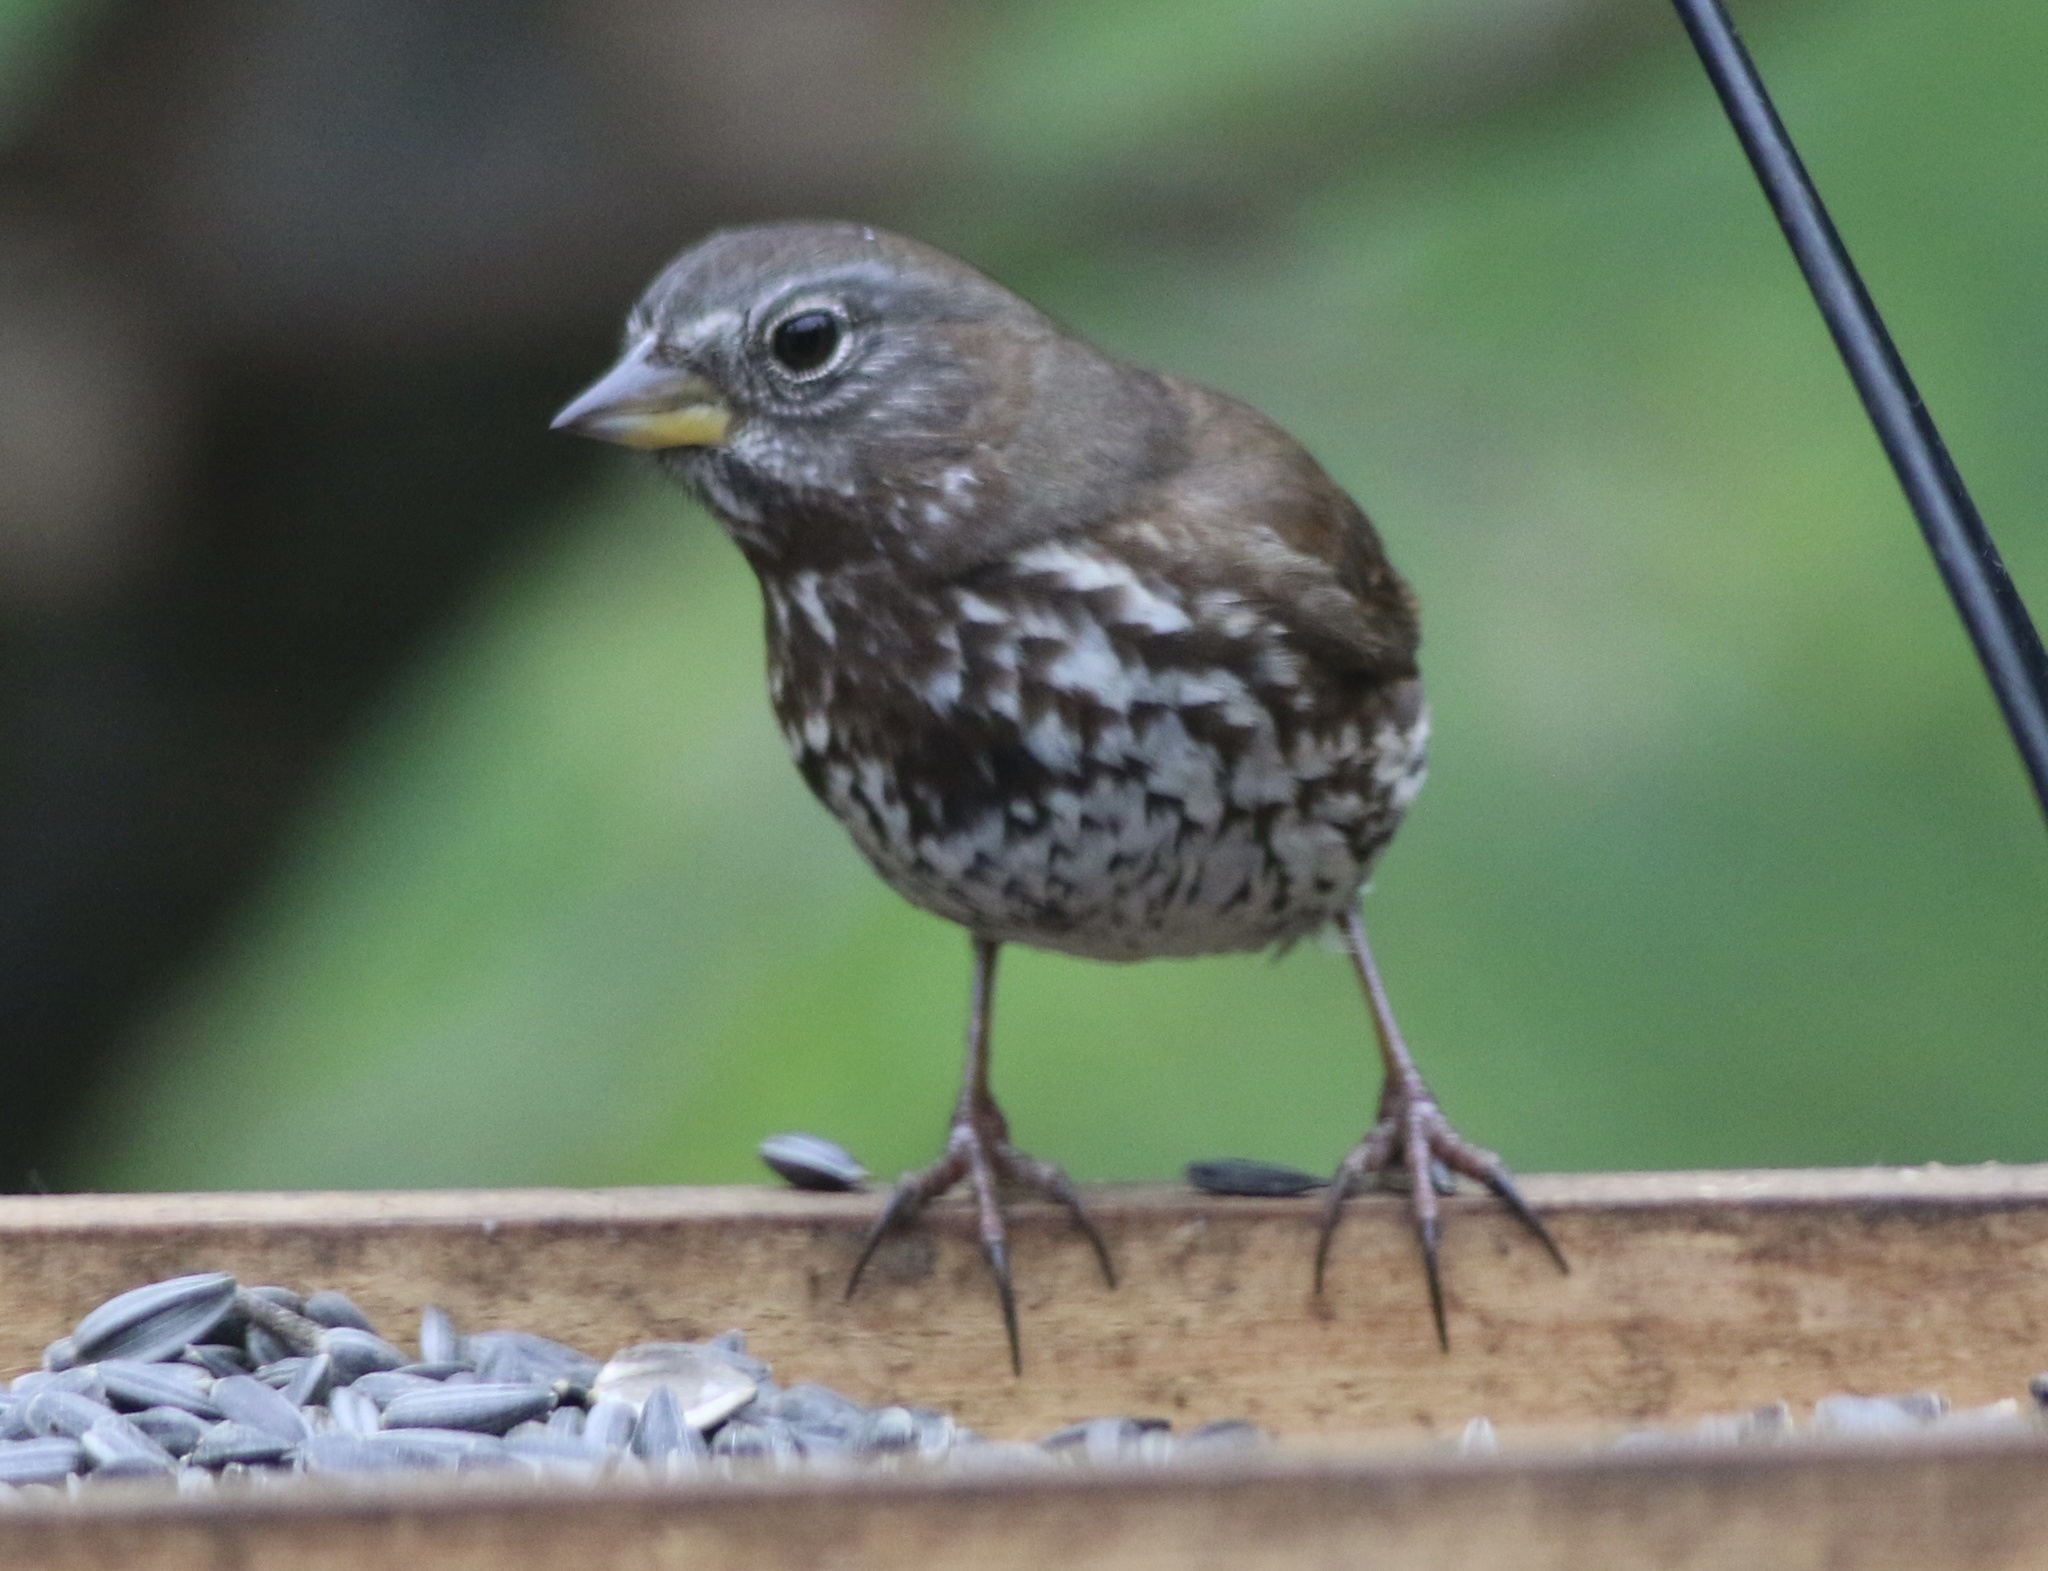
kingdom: Animalia
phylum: Chordata
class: Aves
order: Passeriformes
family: Passerellidae
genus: Passerella
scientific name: Passerella iliaca
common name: Fox sparrow
